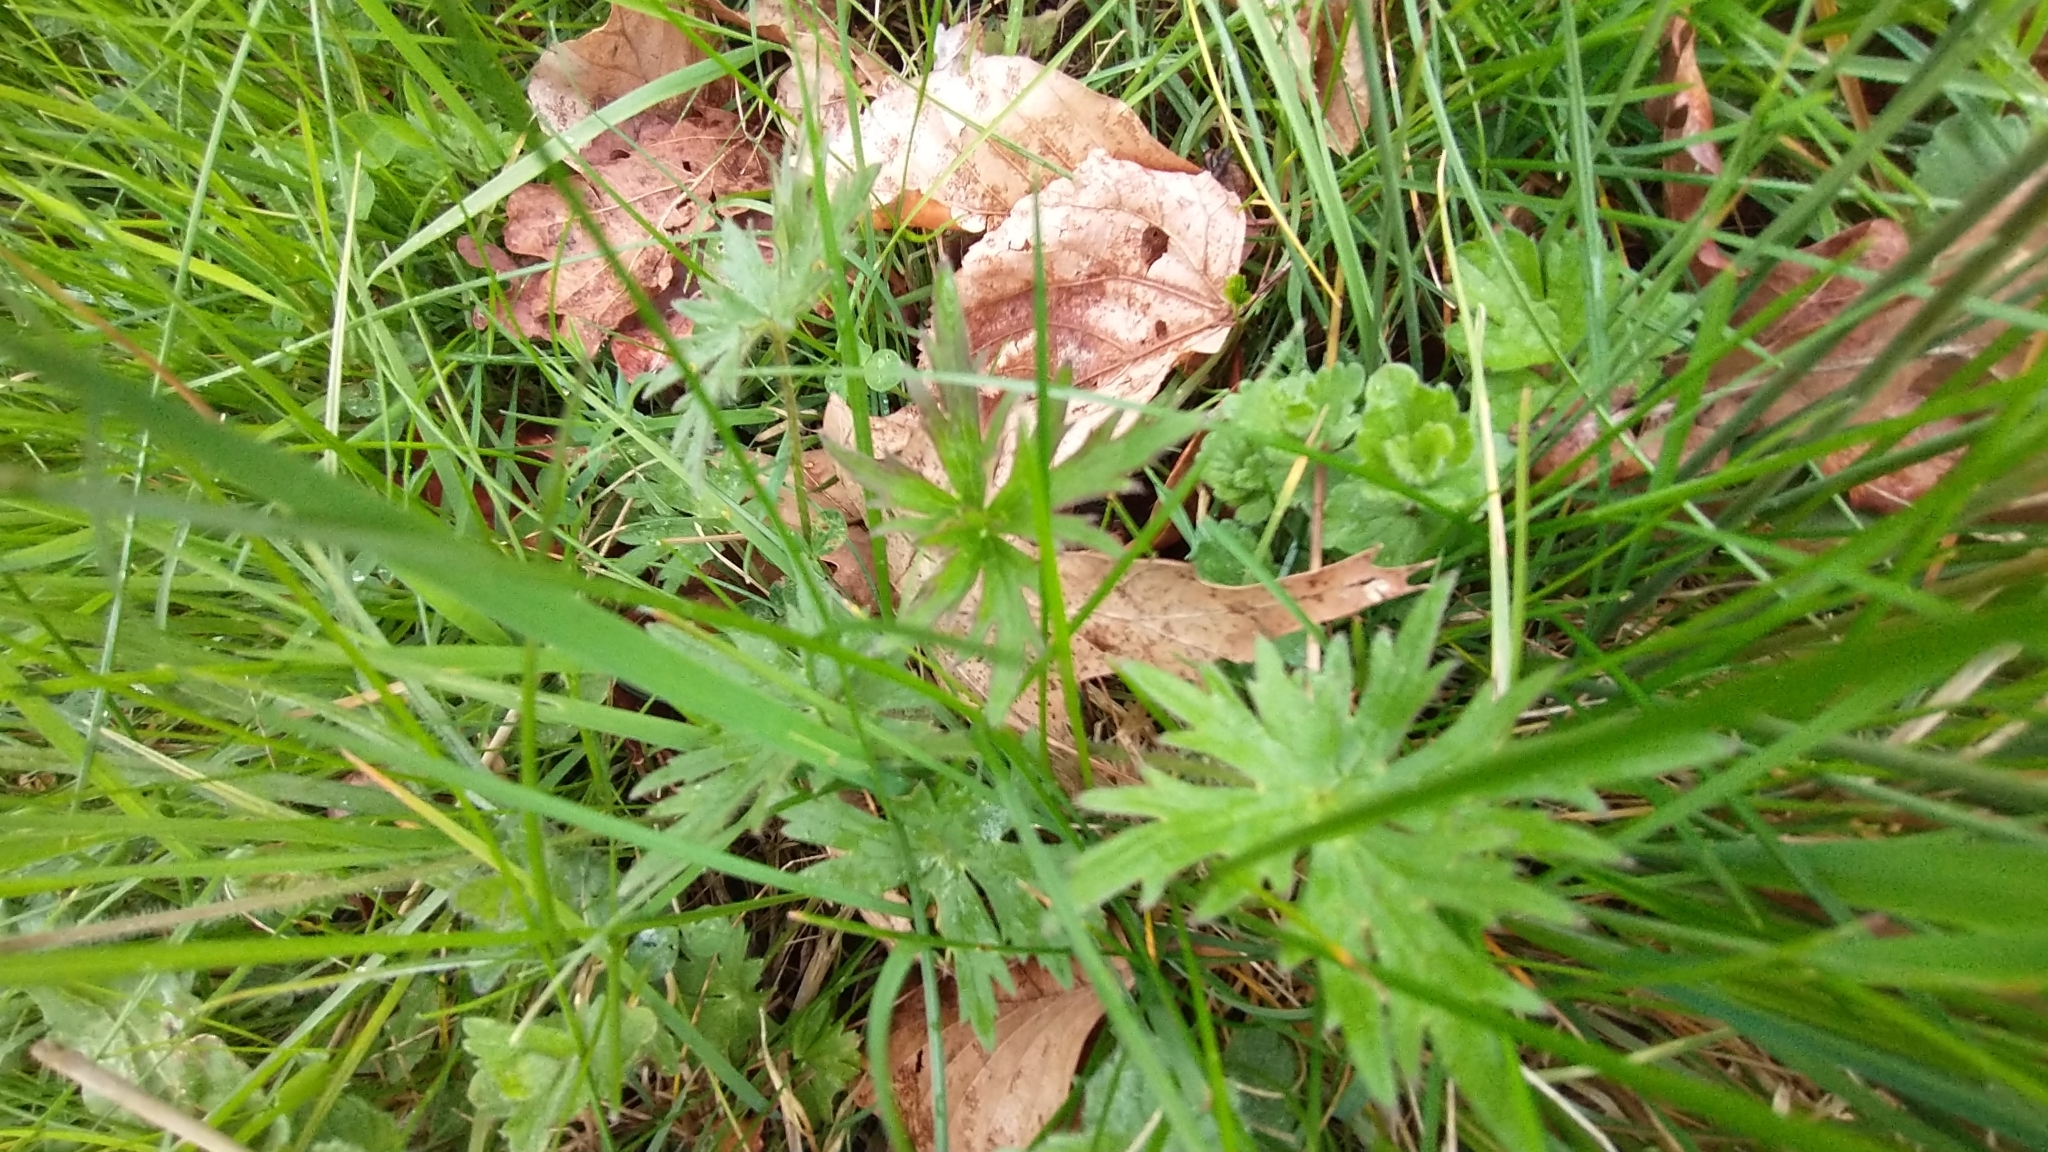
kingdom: Plantae
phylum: Tracheophyta
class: Magnoliopsida
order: Ranunculales
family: Ranunculaceae
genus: Ranunculus
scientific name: Ranunculus acris
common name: Meadow buttercup
